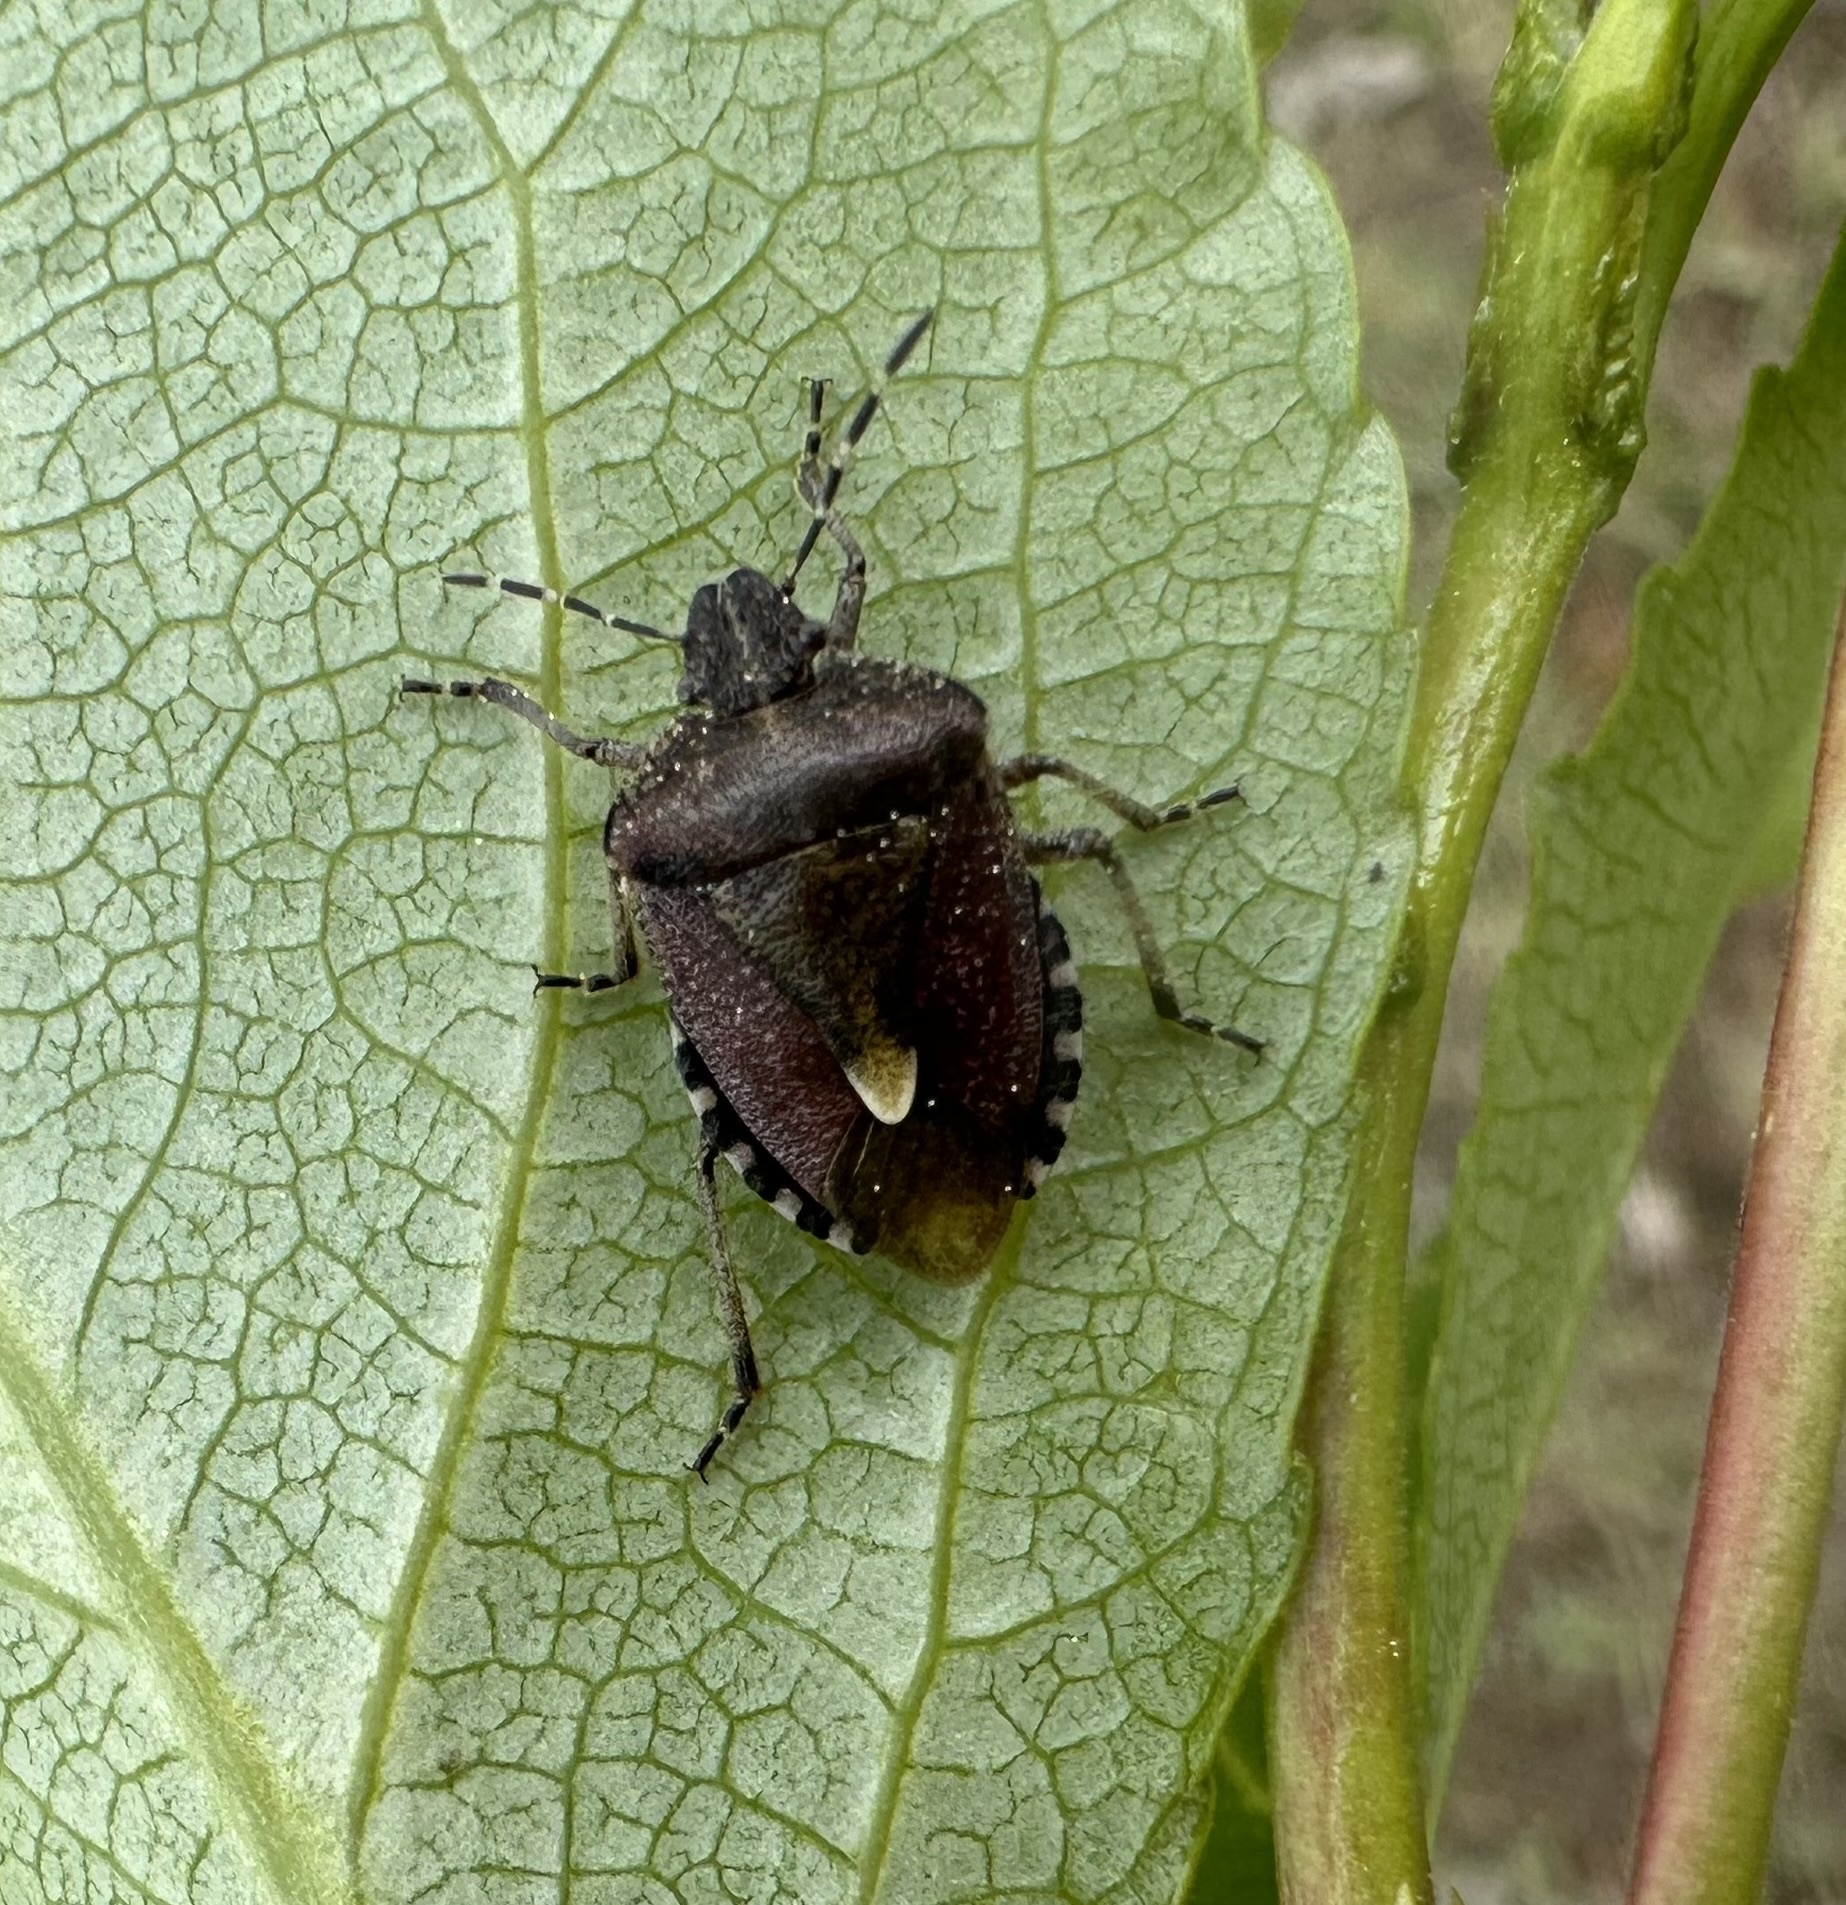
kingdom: Animalia
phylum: Arthropoda
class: Insecta
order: Hemiptera
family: Pentatomidae
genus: Dolycoris
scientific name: Dolycoris baccarum
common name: Sloe bug
